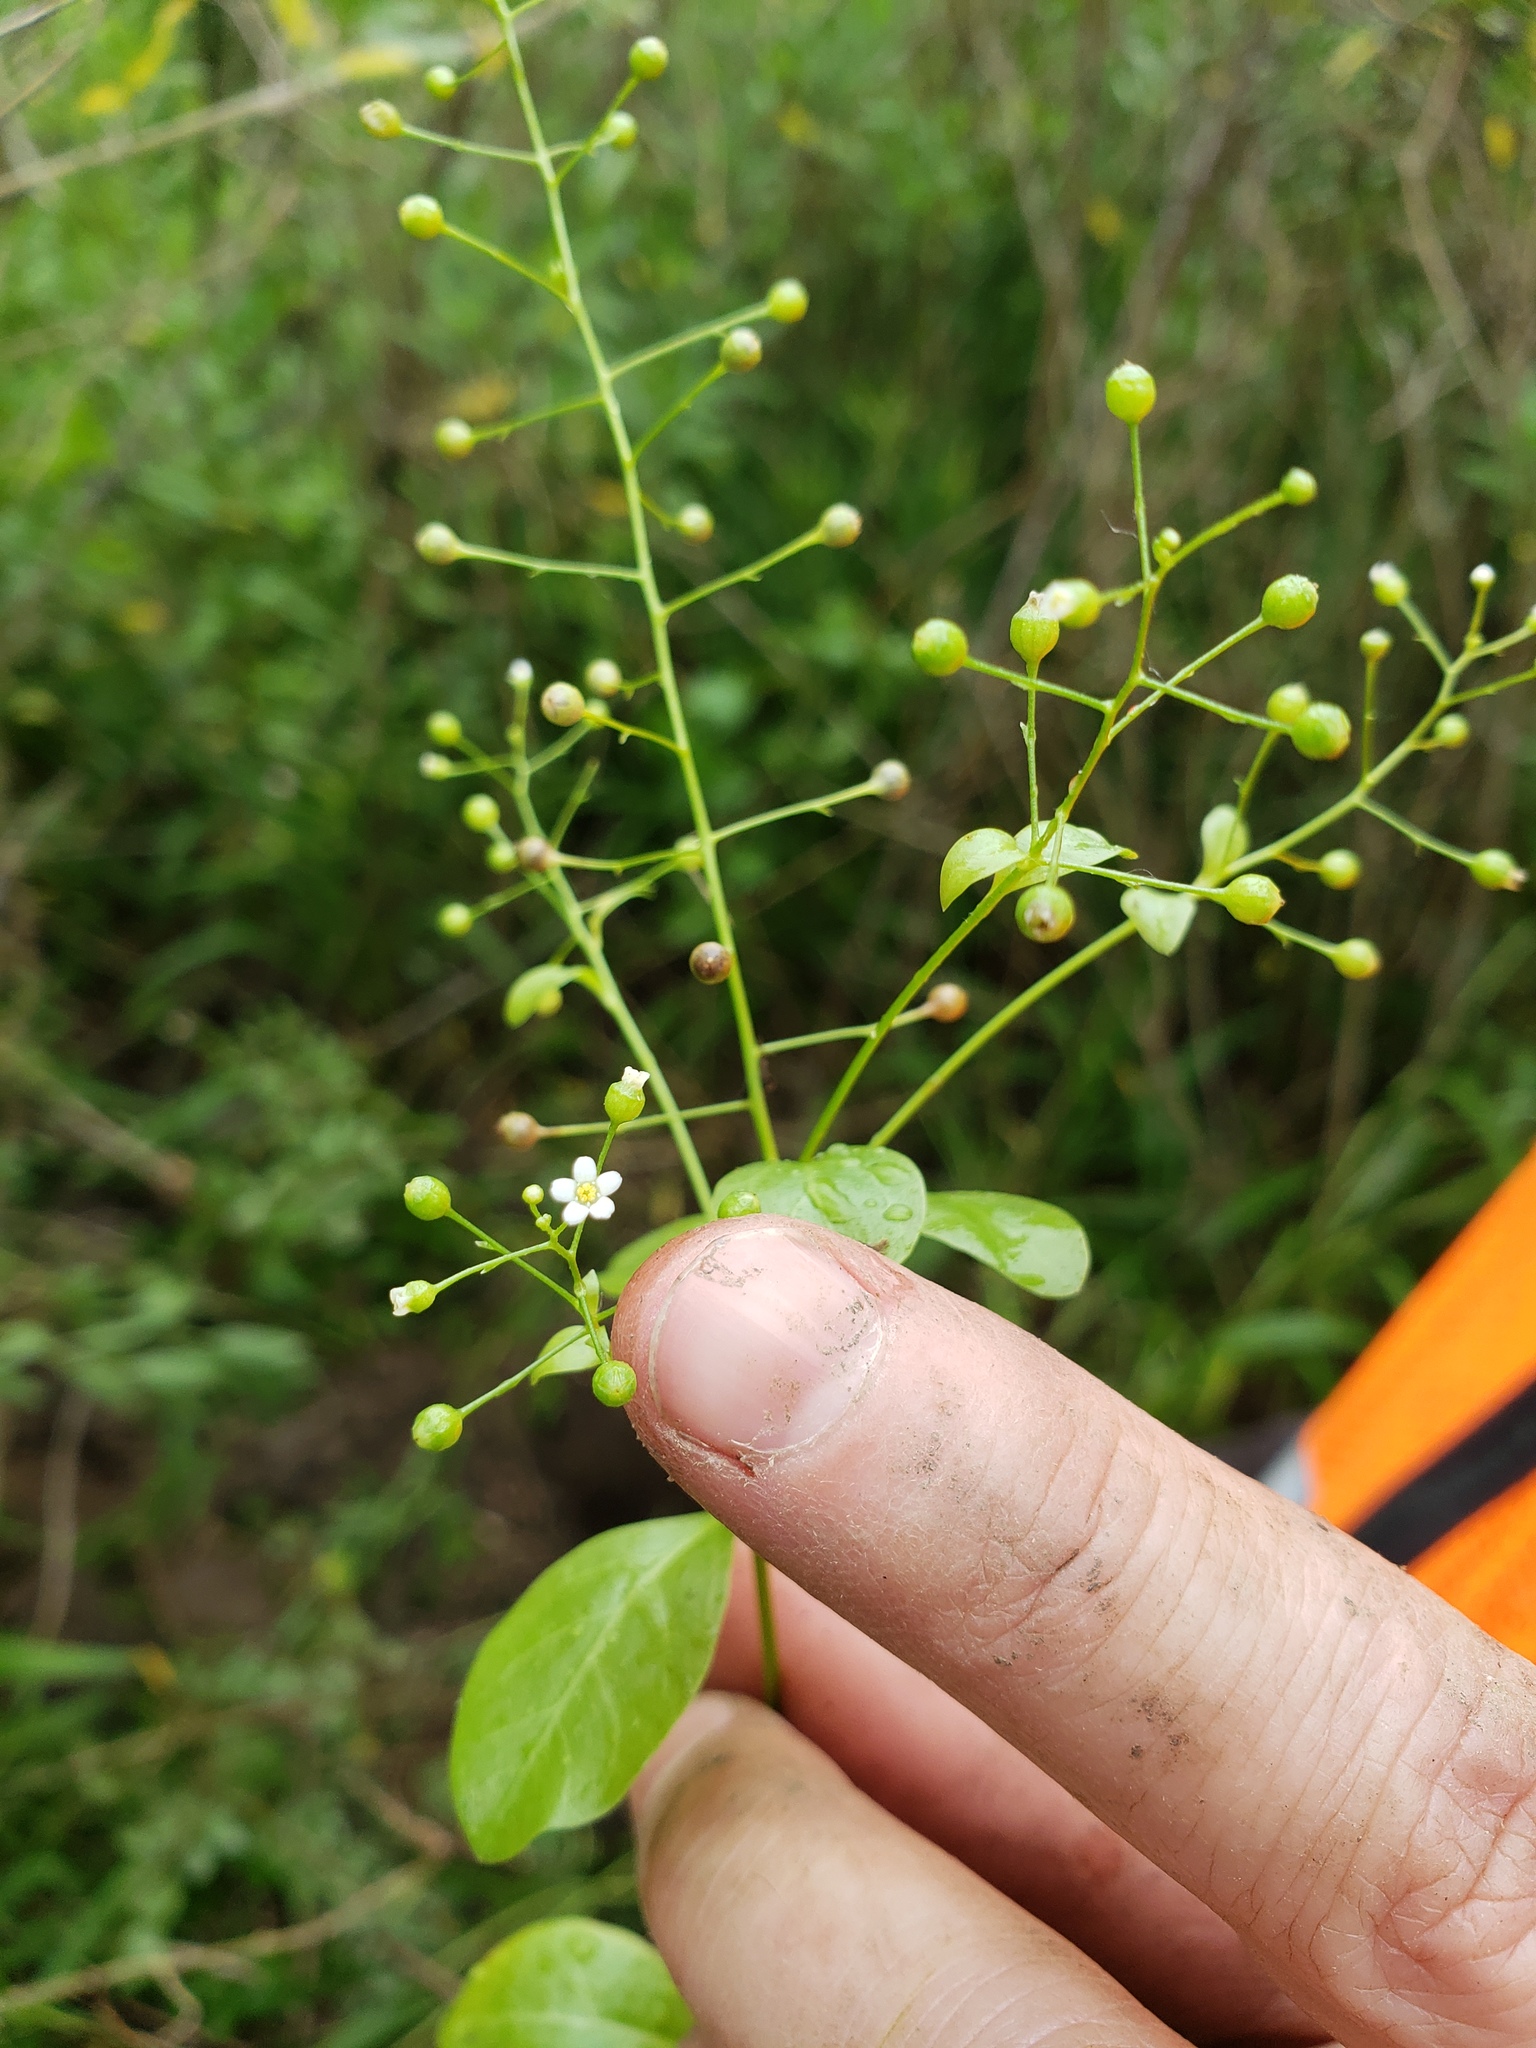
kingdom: Plantae
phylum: Tracheophyta
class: Magnoliopsida
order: Ericales
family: Primulaceae
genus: Samolus
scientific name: Samolus parviflorus
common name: False water pimpernel
